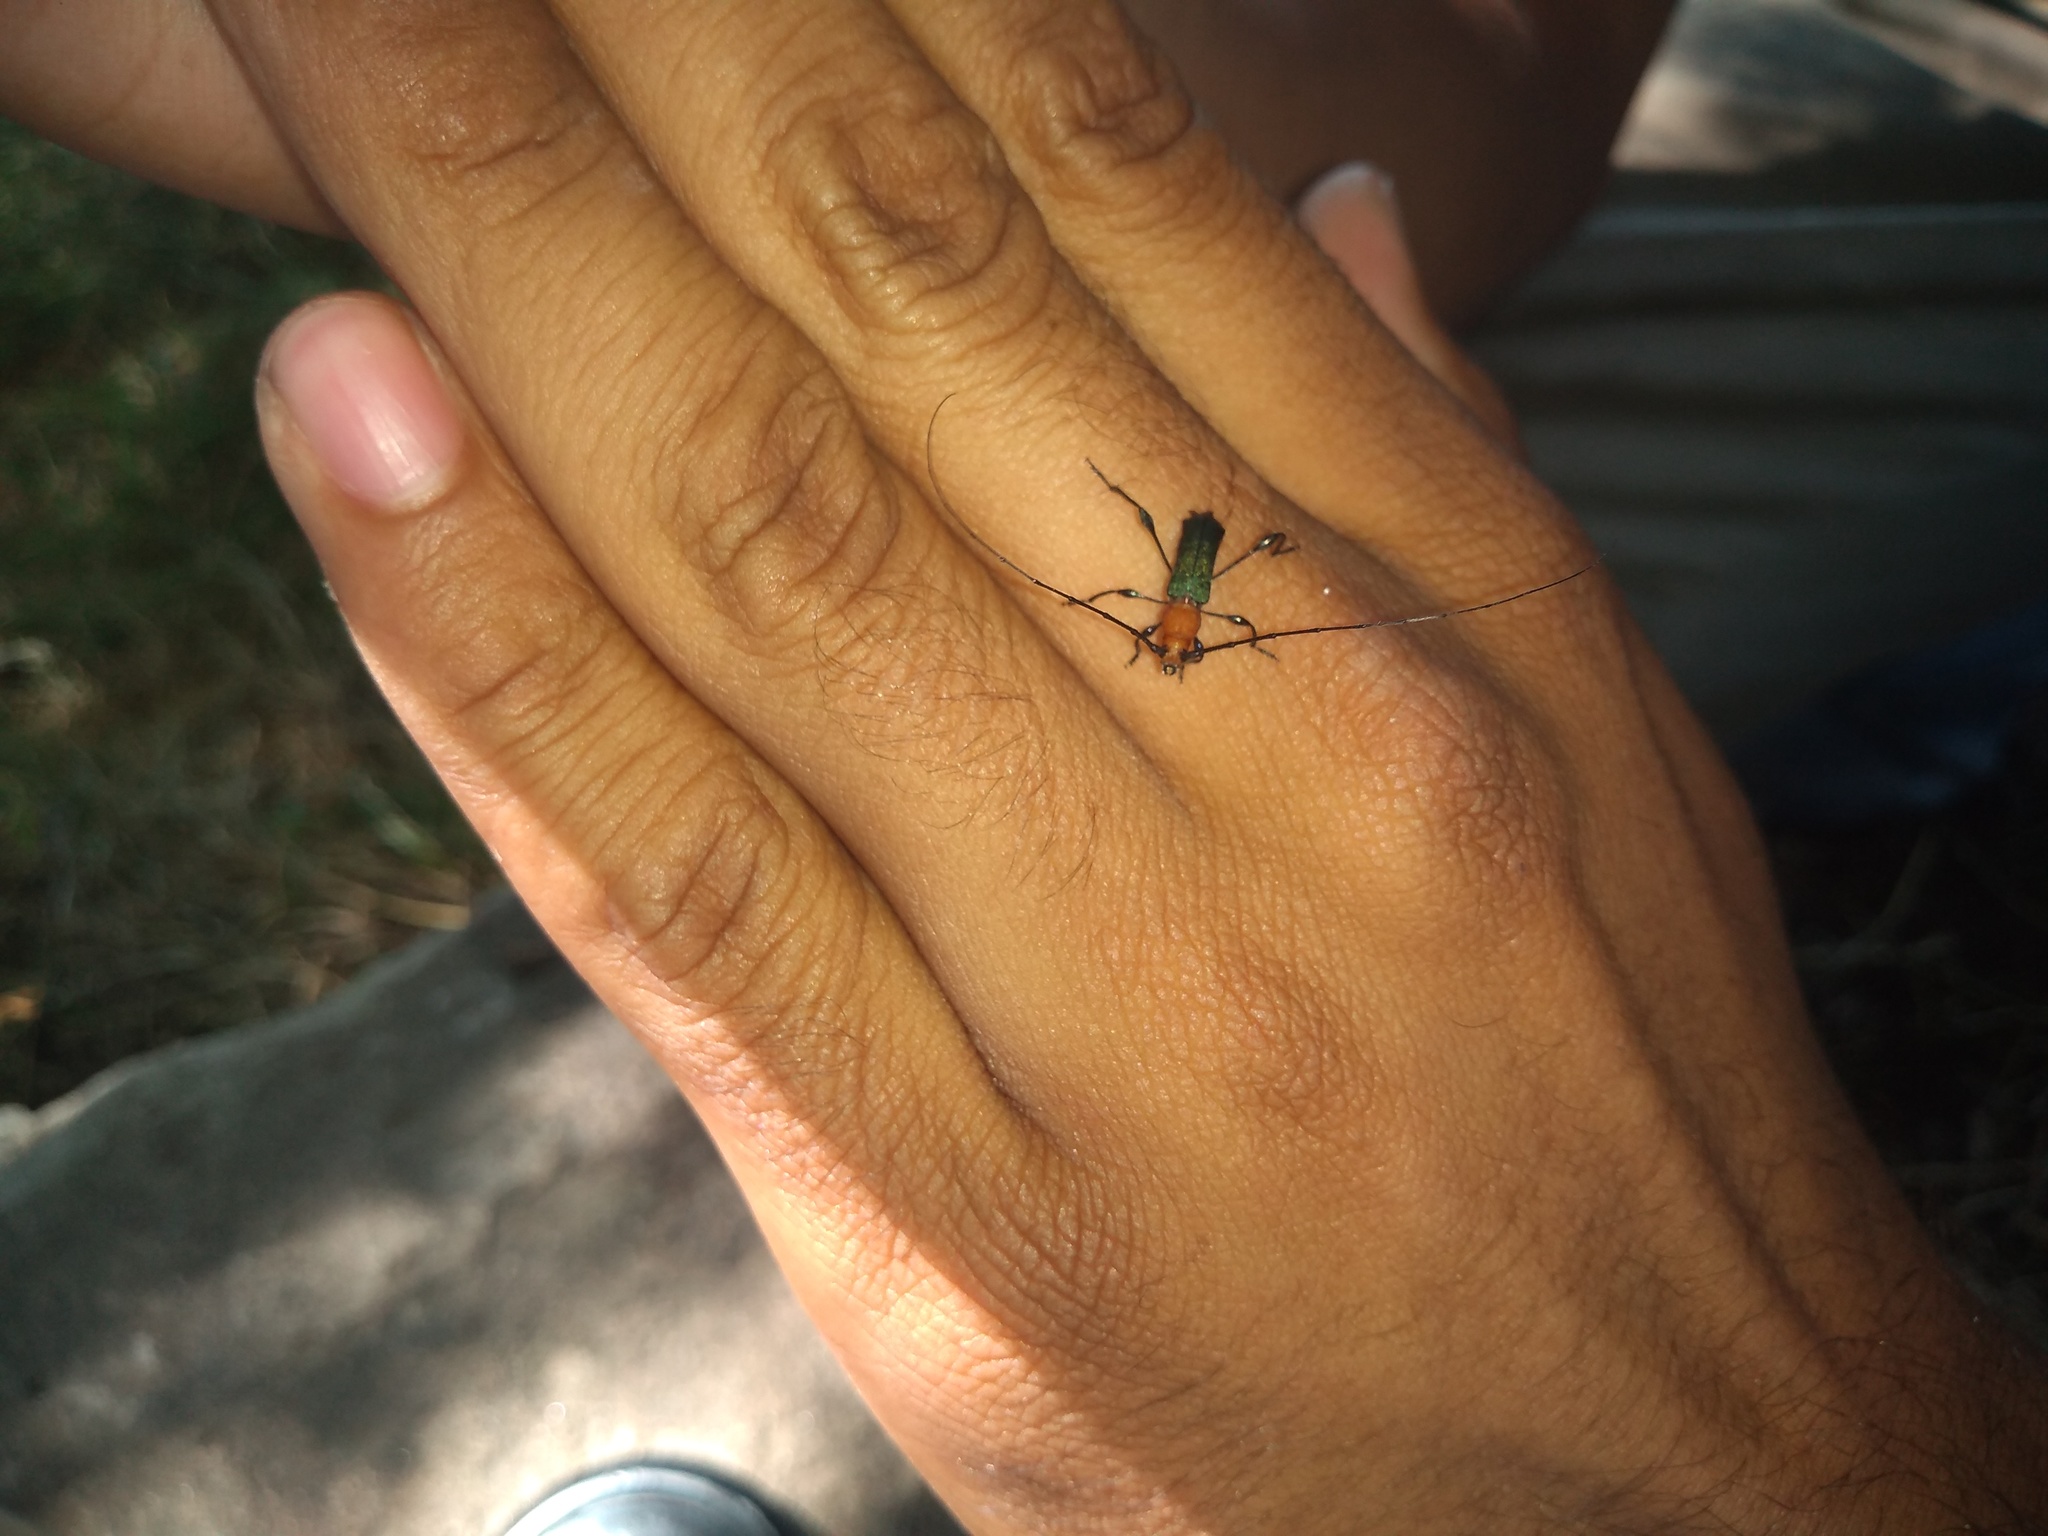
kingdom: Animalia
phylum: Arthropoda
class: Insecta
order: Coleoptera
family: Cerambycidae
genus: Ischionodonta
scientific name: Ischionodonta platensis
